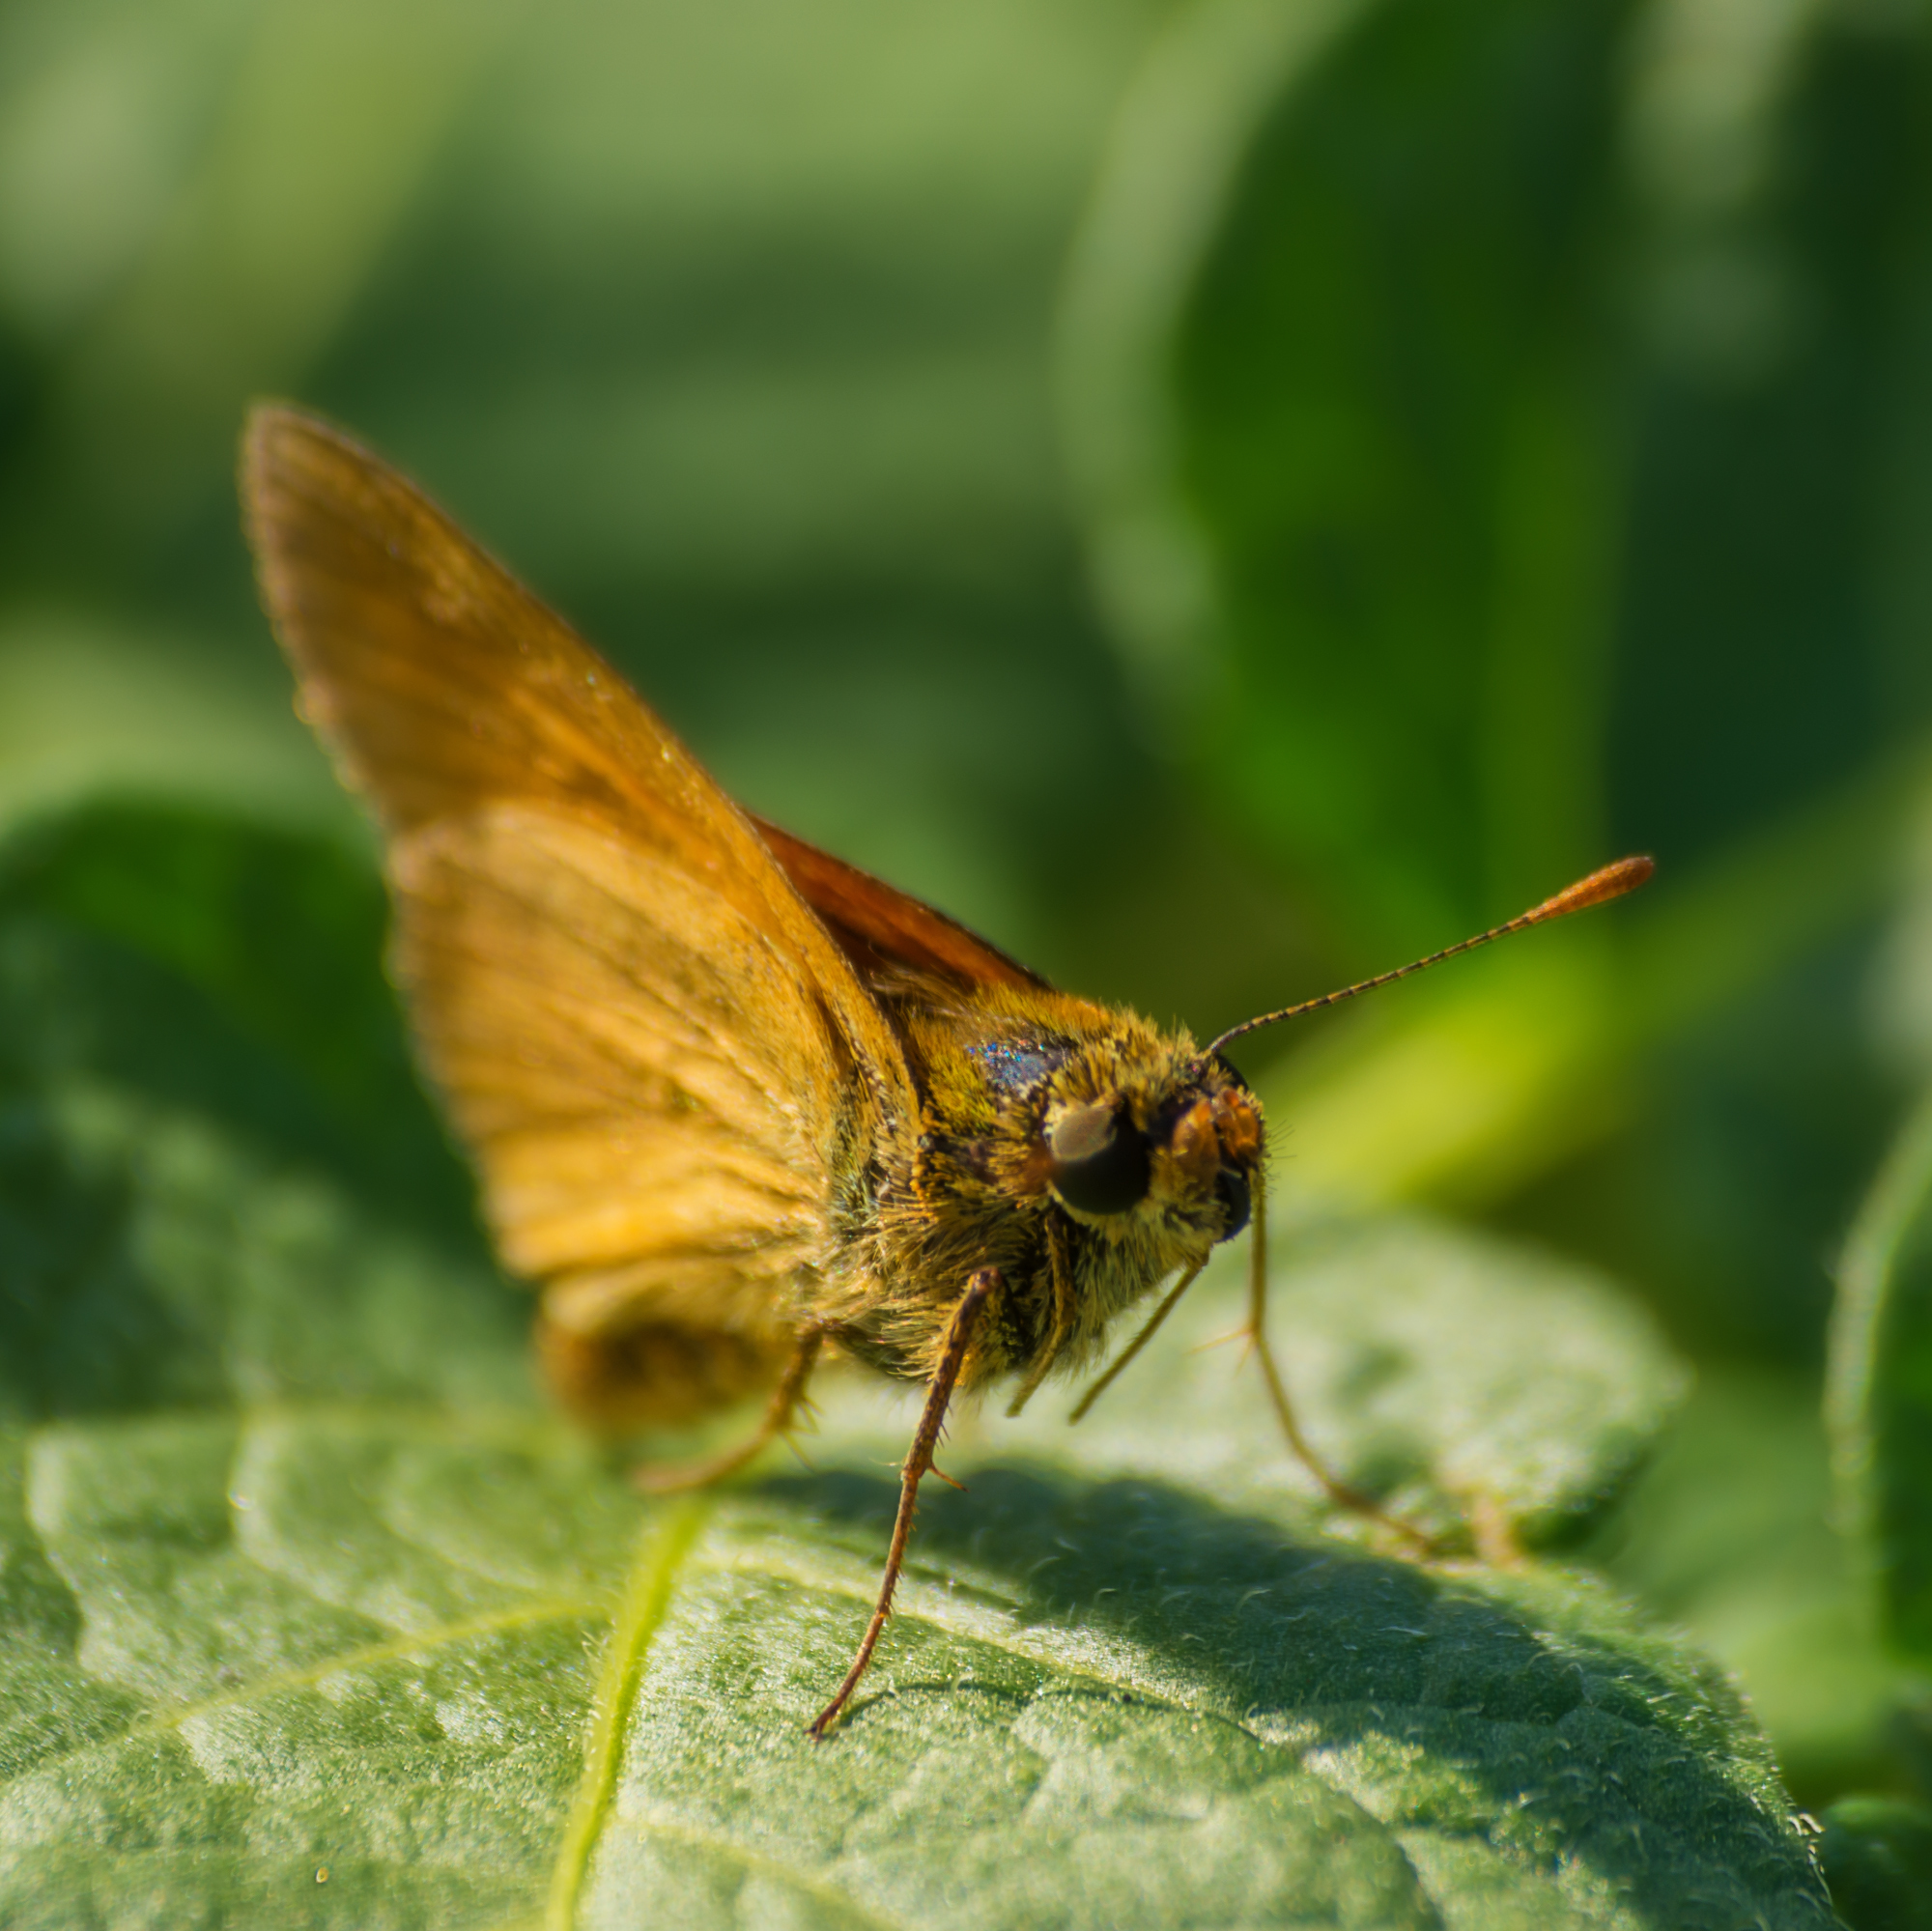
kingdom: Animalia
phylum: Arthropoda
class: Insecta
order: Lepidoptera
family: Hesperiidae
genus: Ochlodes
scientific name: Ochlodes venata
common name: Large skipper
